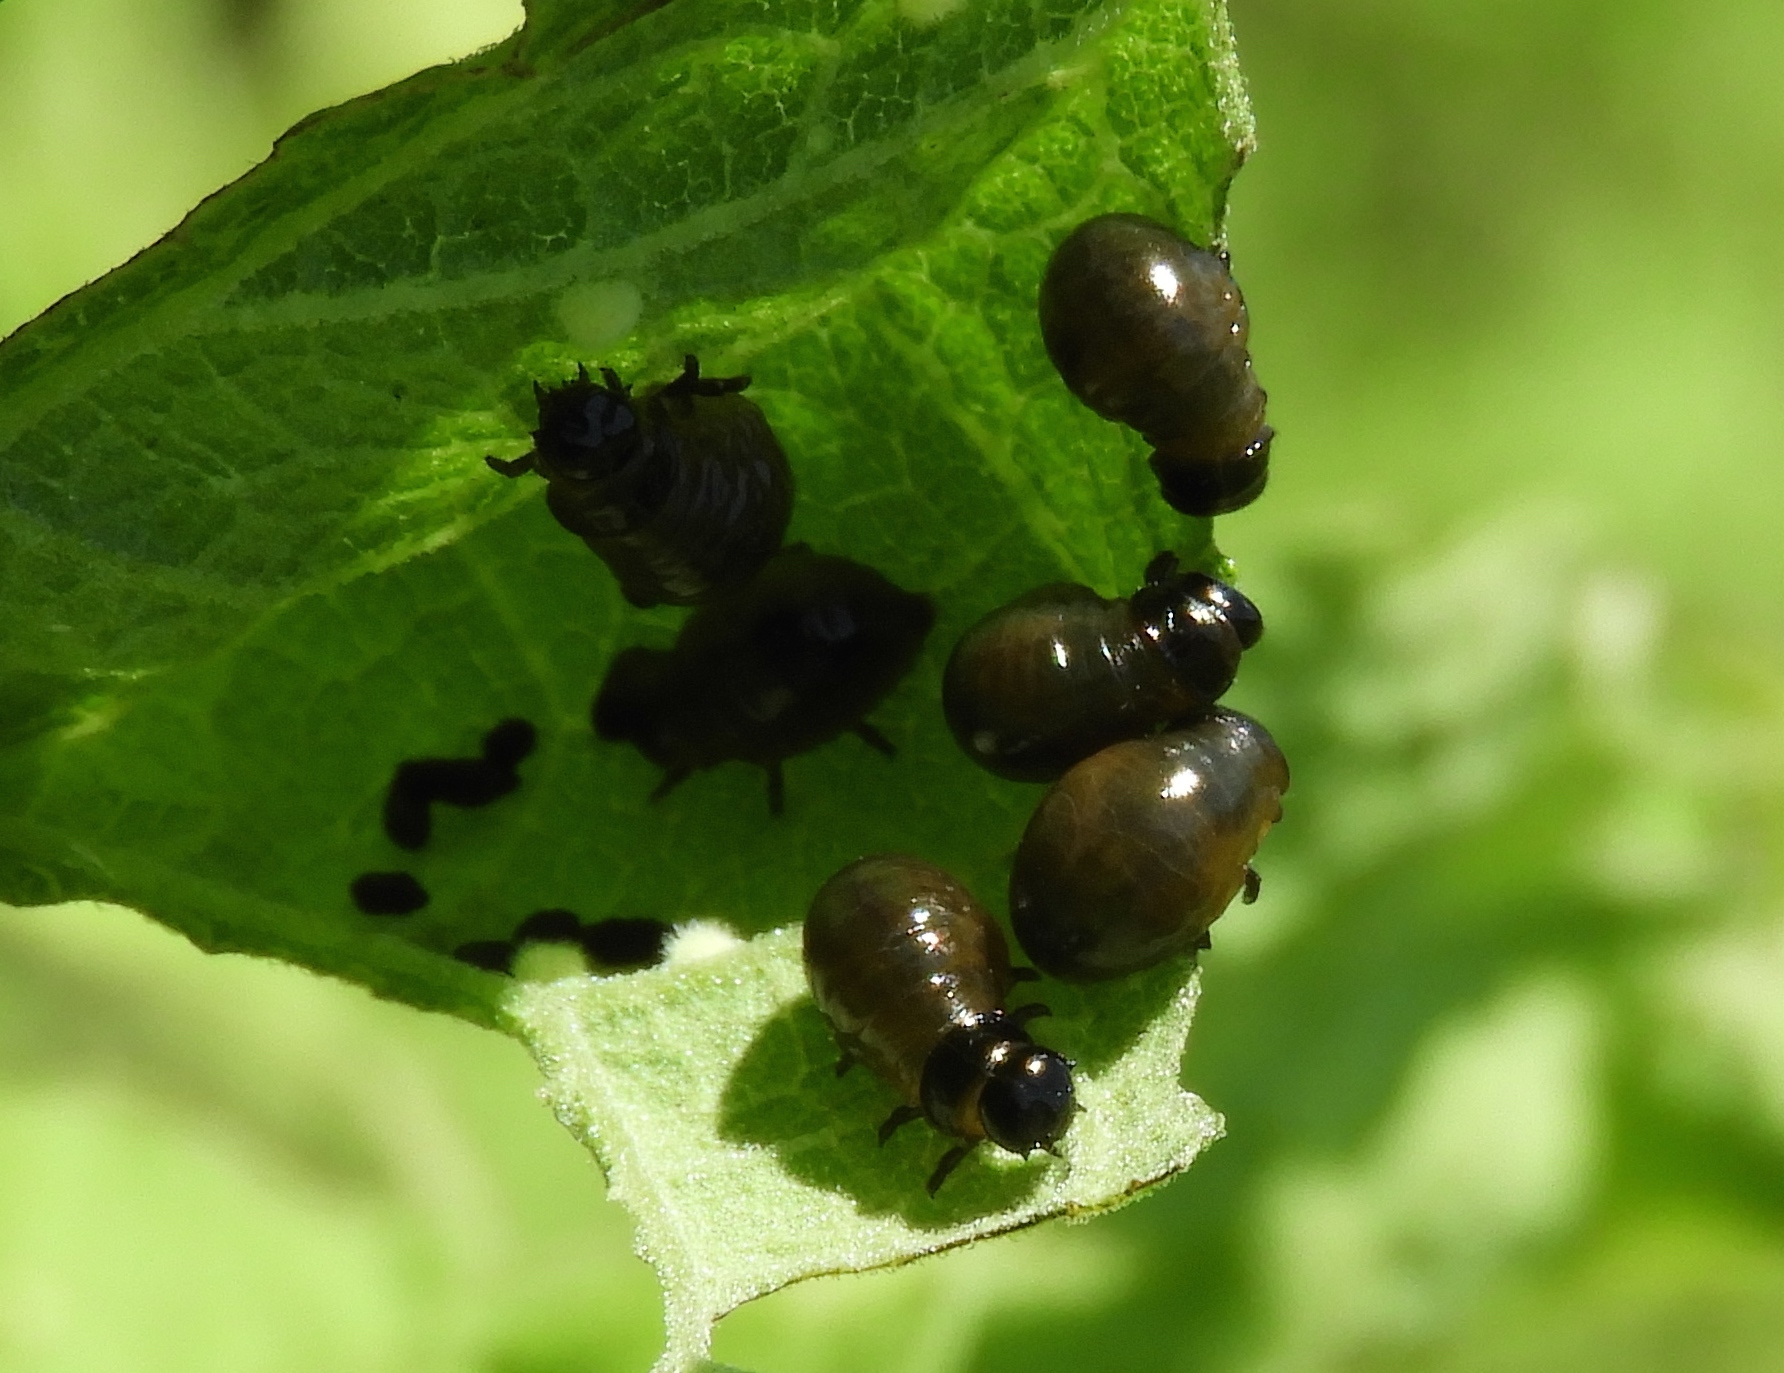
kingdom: Animalia
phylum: Arthropoda
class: Insecta
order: Coleoptera
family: Chrysomelidae
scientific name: Chrysomelidae
